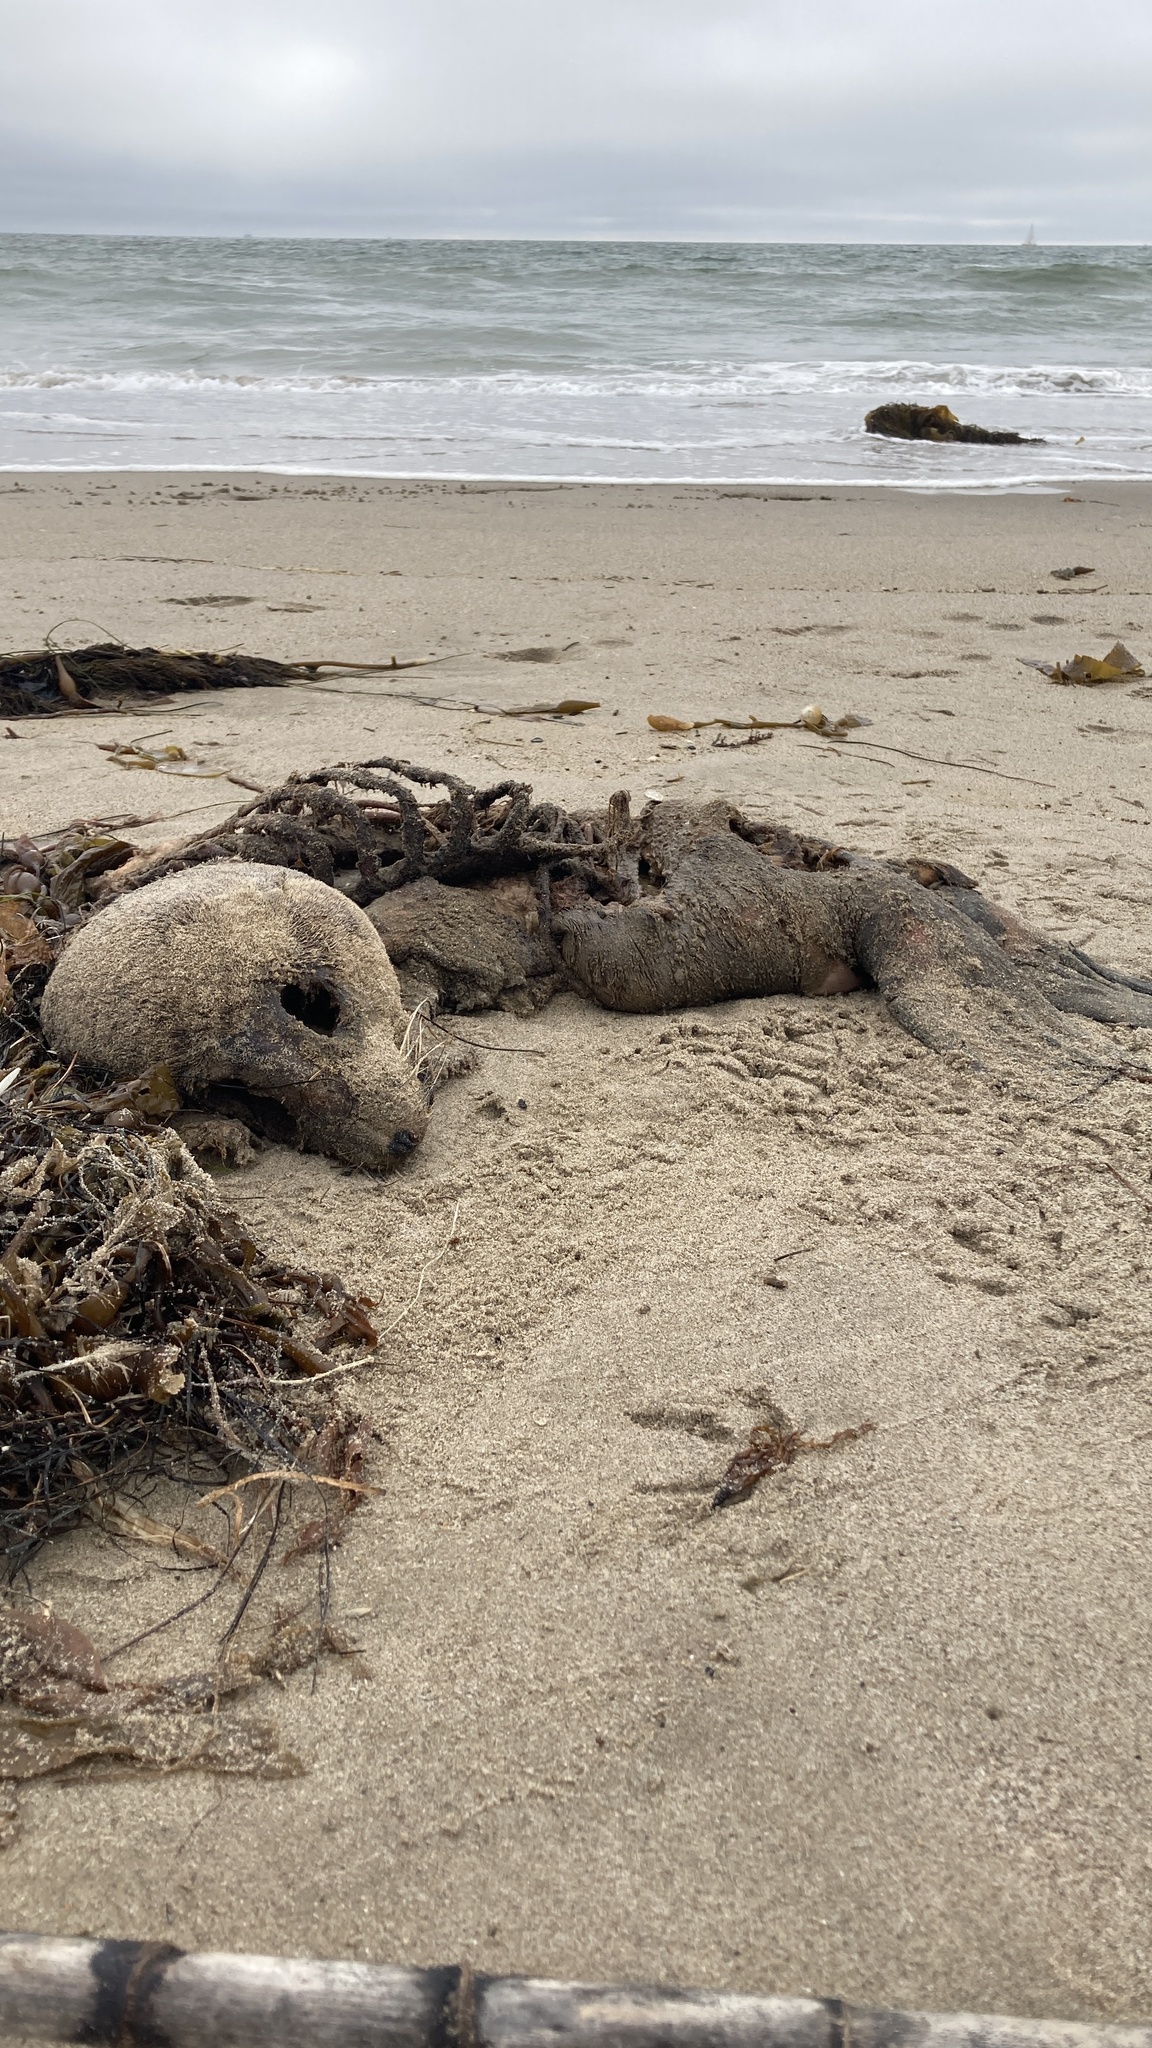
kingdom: Animalia
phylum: Chordata
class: Mammalia
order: Carnivora
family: Otariidae
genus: Zalophus
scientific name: Zalophus californianus
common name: California sea lion
